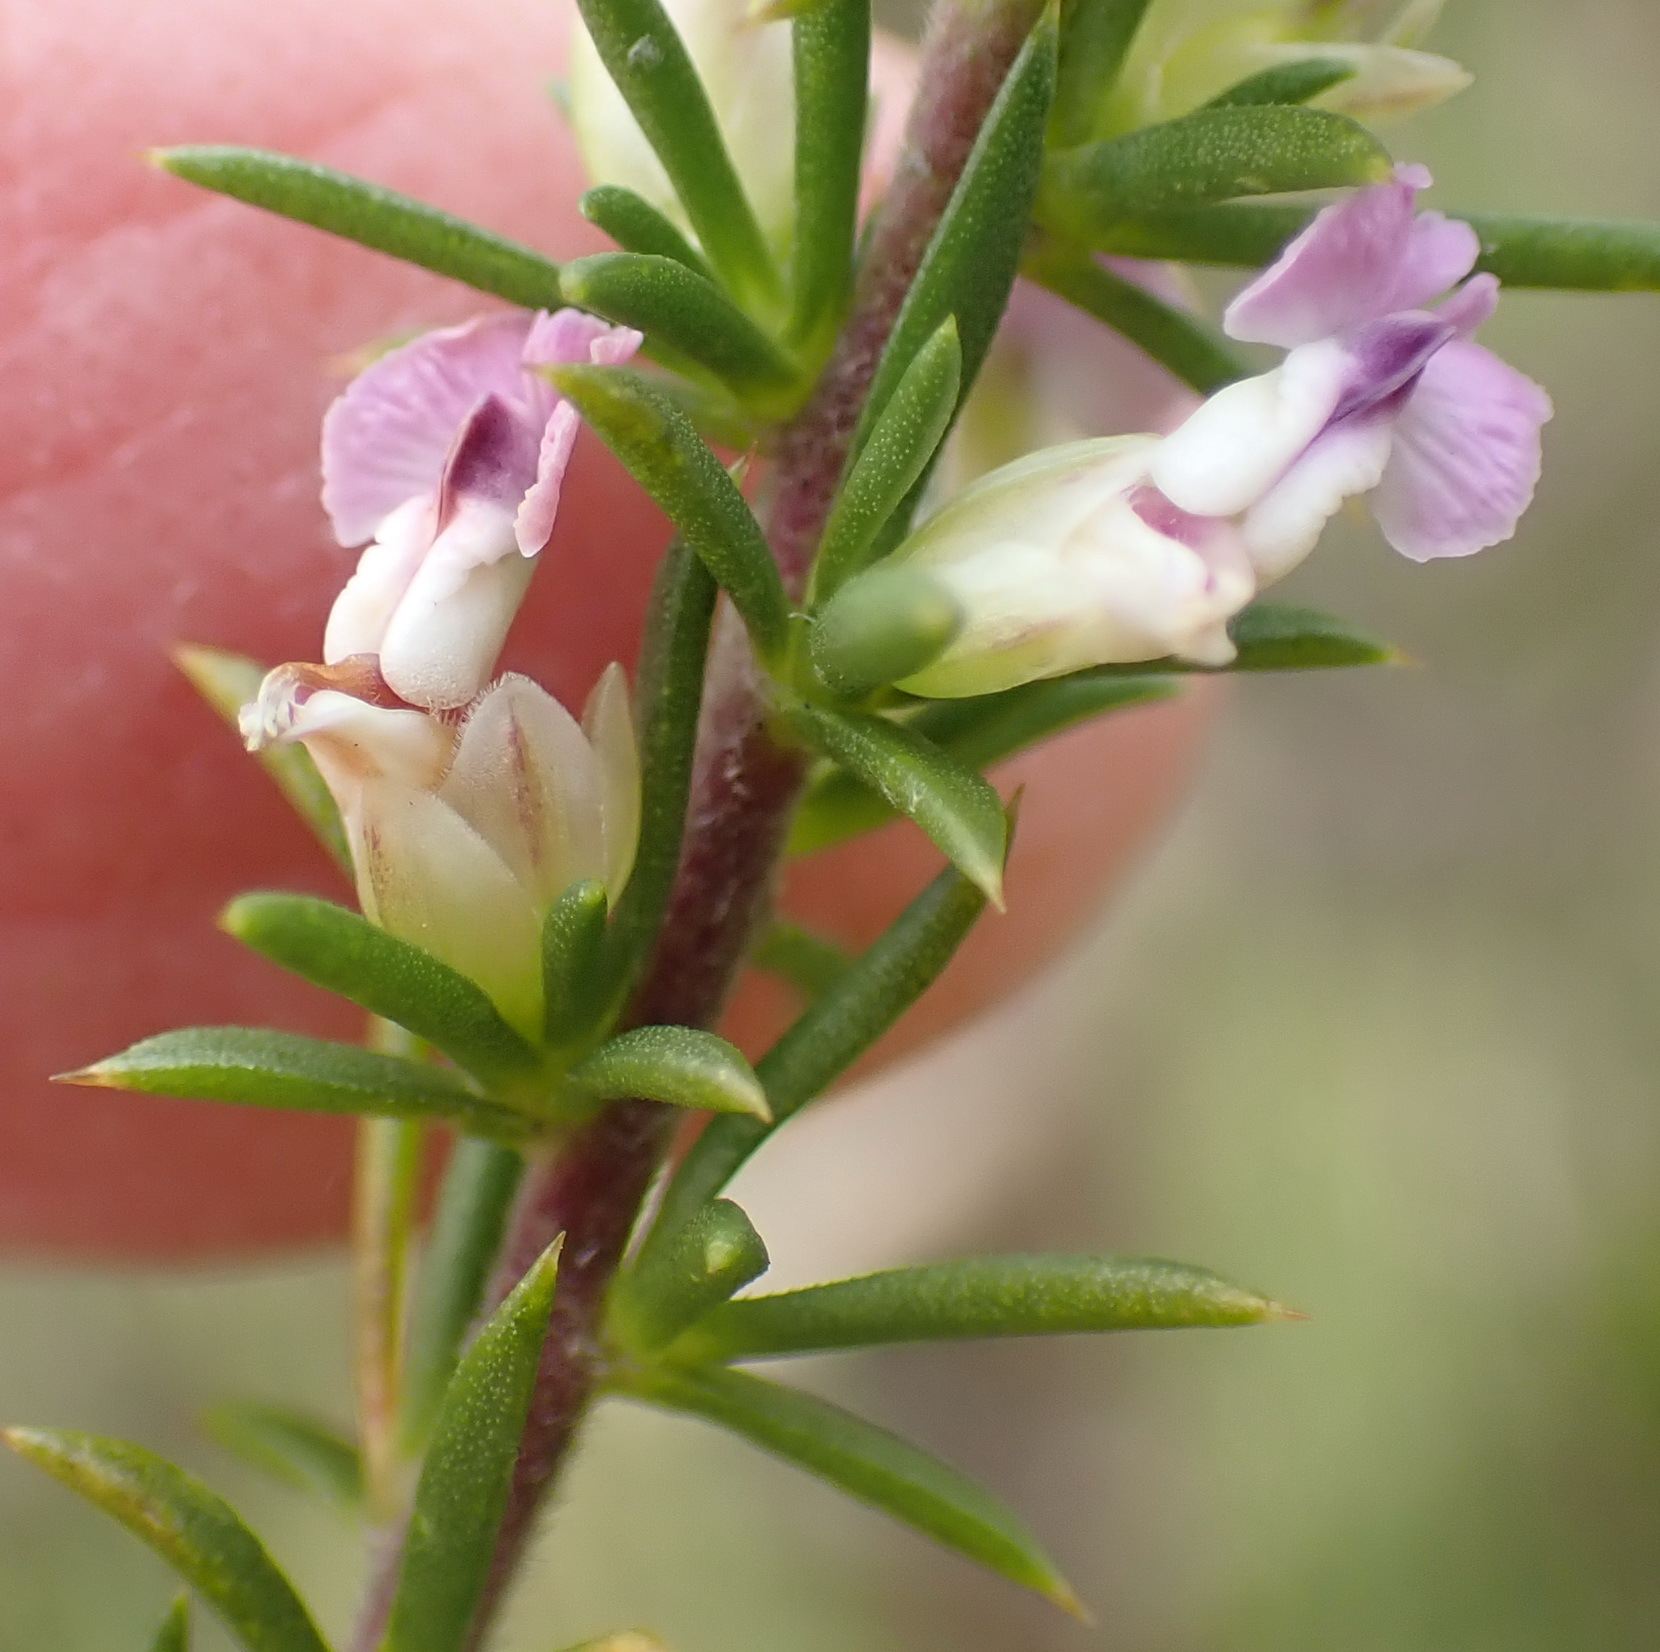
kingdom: Plantae
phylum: Tracheophyta
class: Magnoliopsida
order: Fabales
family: Polygalaceae
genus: Muraltia
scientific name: Muraltia ericifolia
